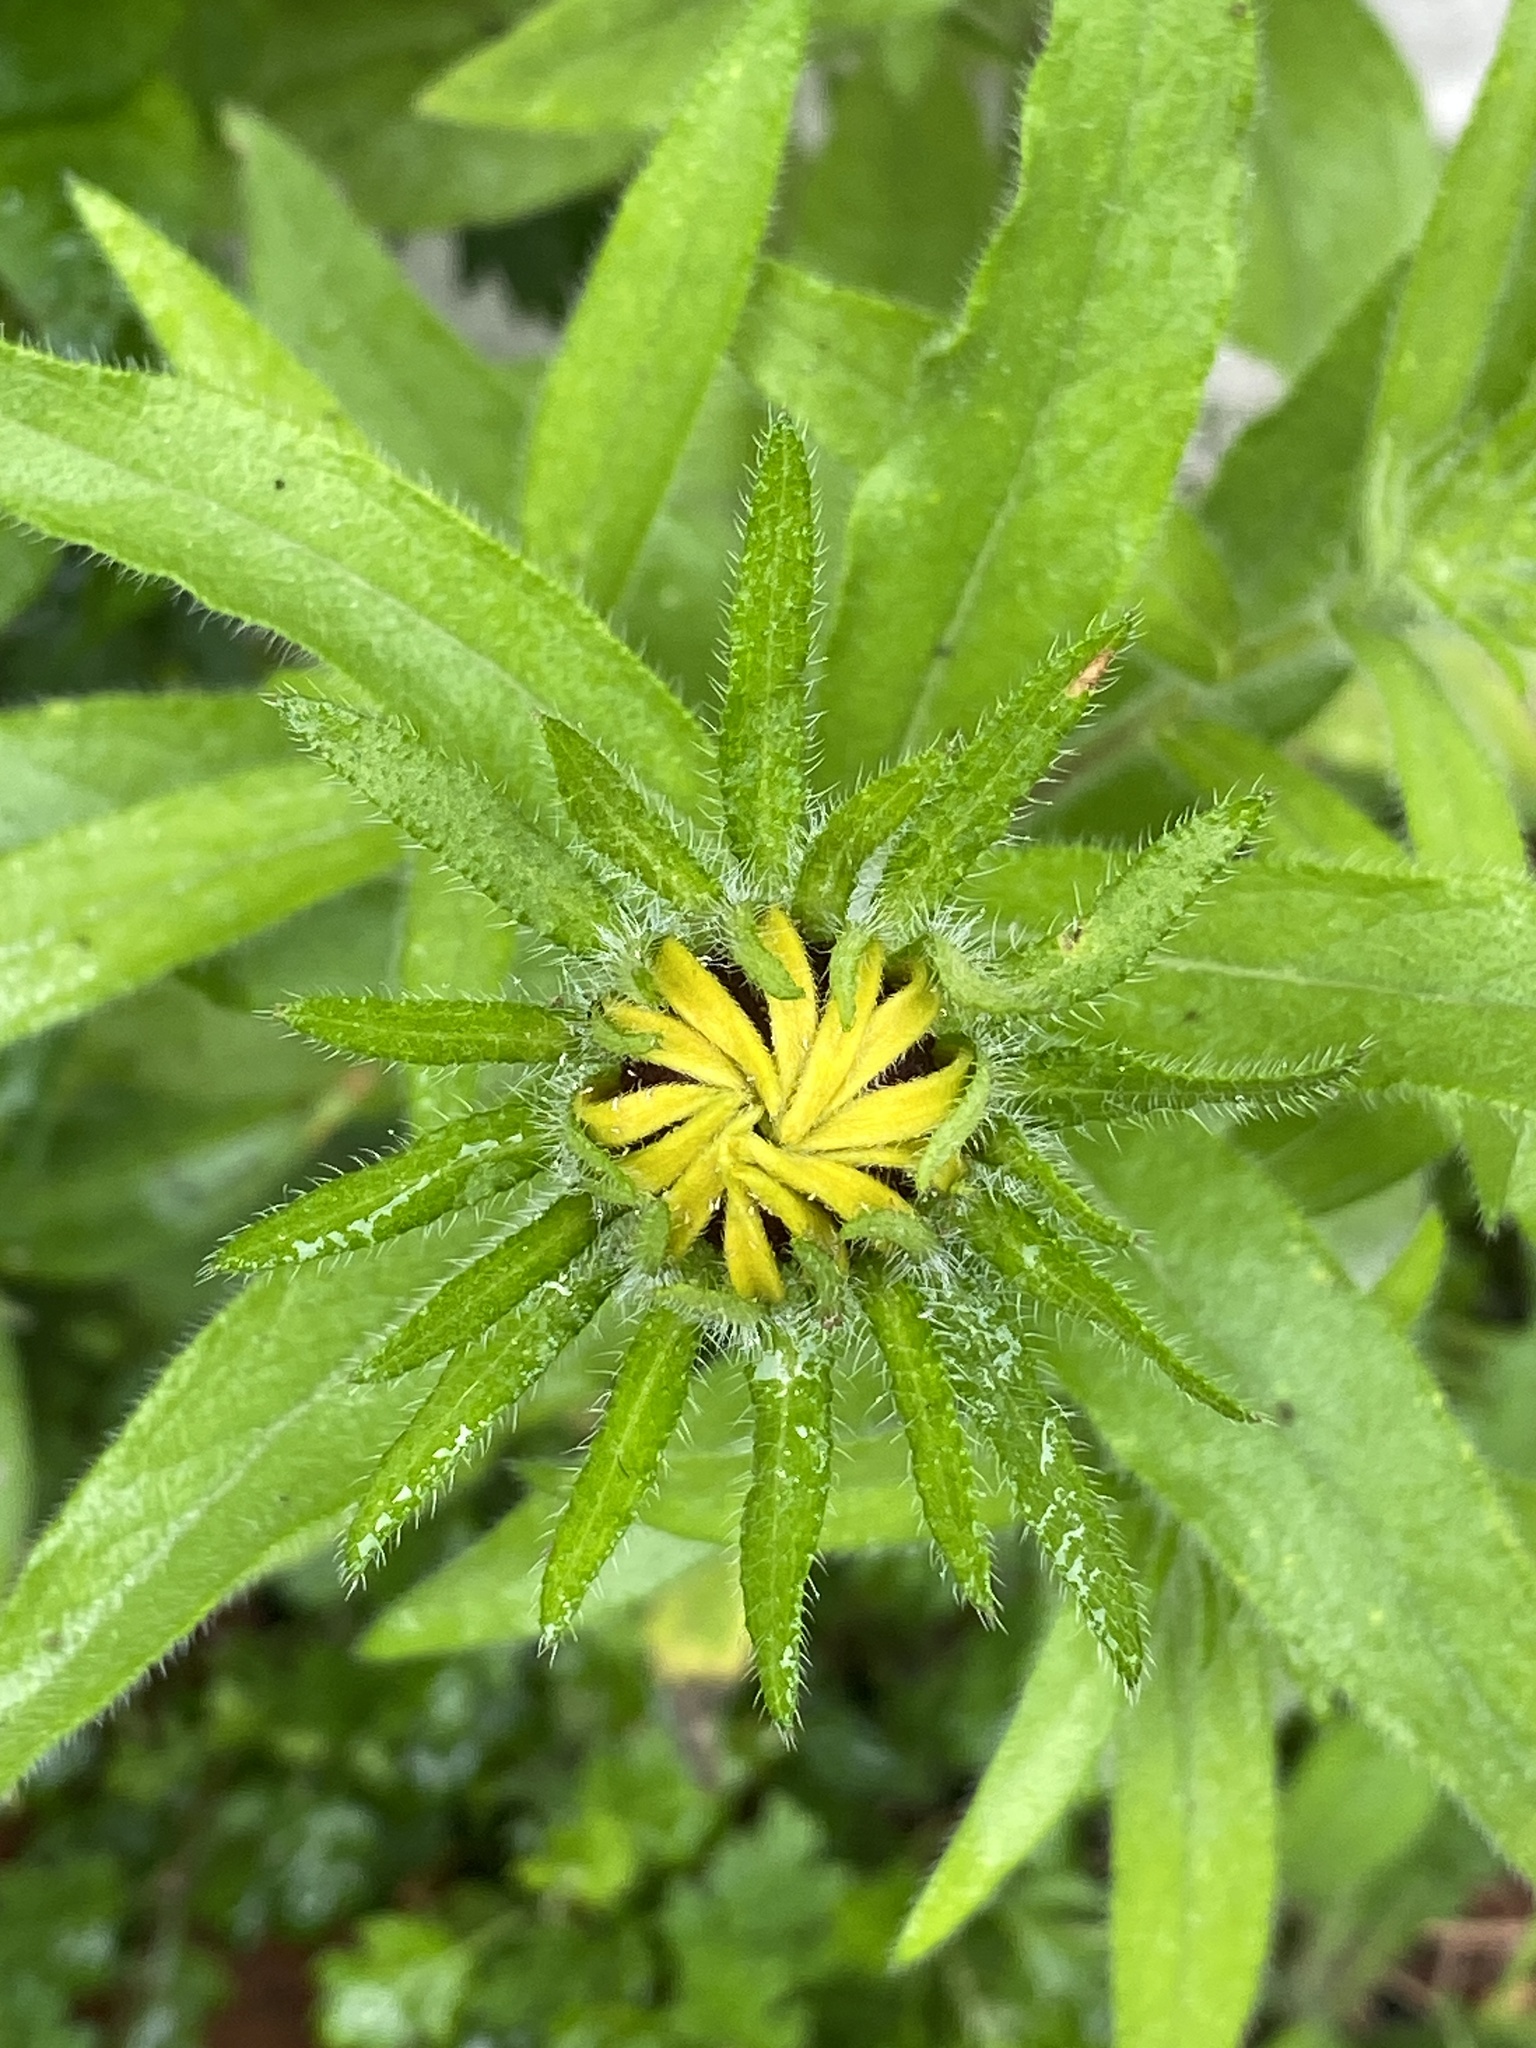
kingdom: Plantae
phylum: Tracheophyta
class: Magnoliopsida
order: Asterales
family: Asteraceae
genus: Rudbeckia
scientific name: Rudbeckia hirta
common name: Black-eyed-susan
